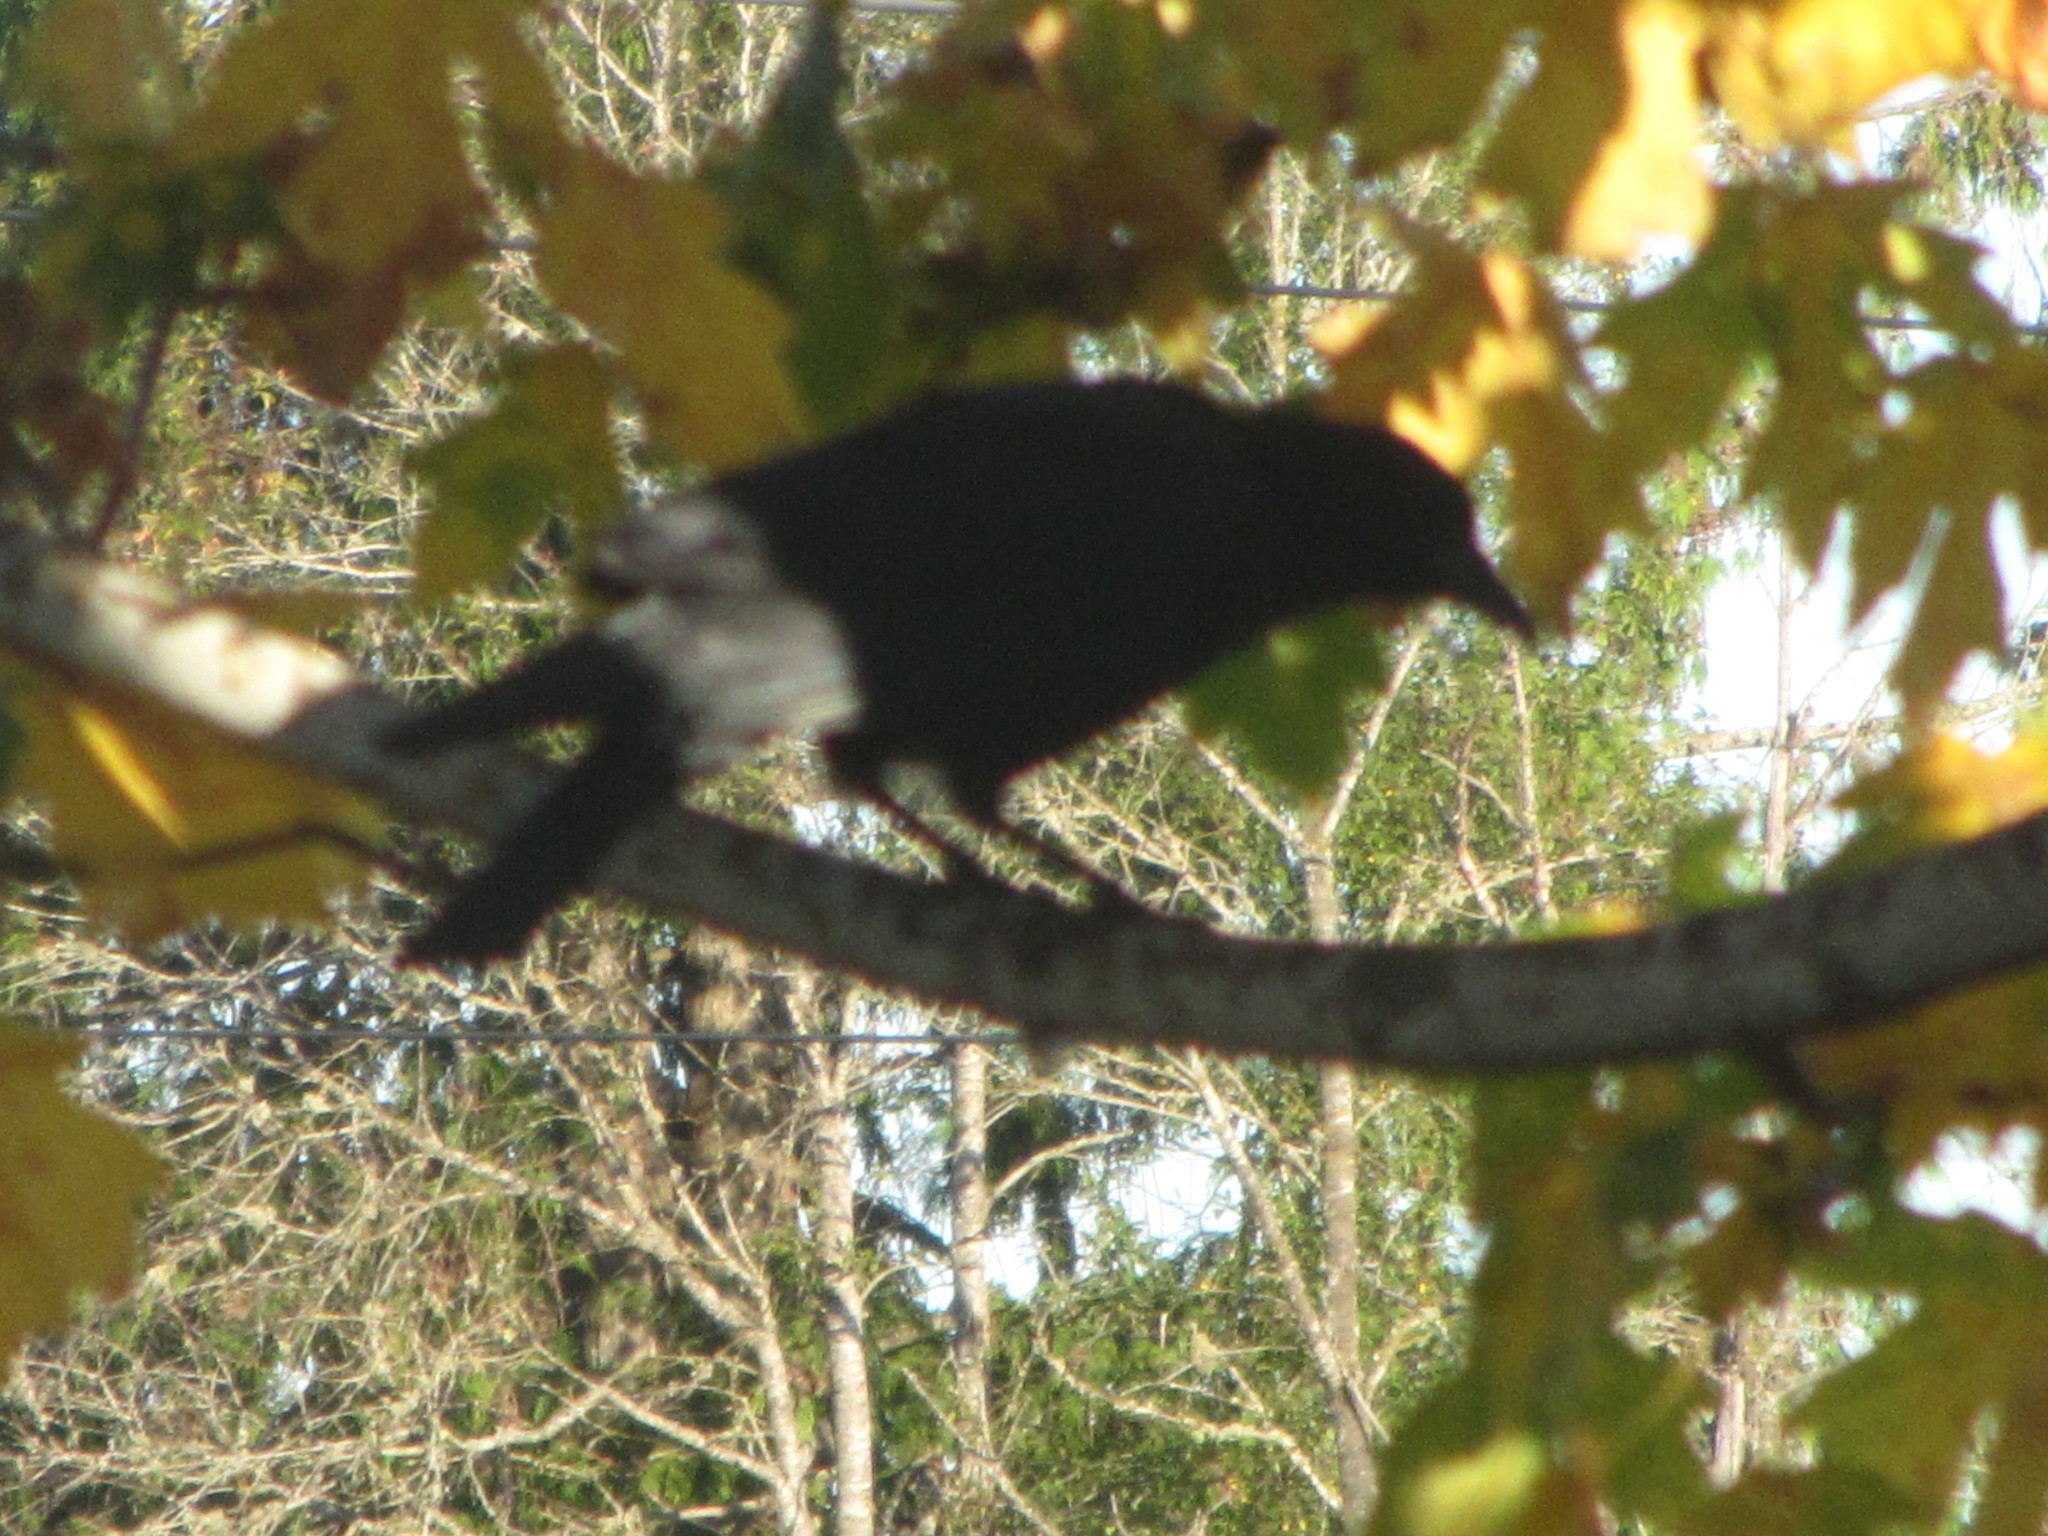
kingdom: Animalia
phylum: Chordata
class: Aves
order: Passeriformes
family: Corvidae
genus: Corvus
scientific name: Corvus brachyrhynchos
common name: American crow
